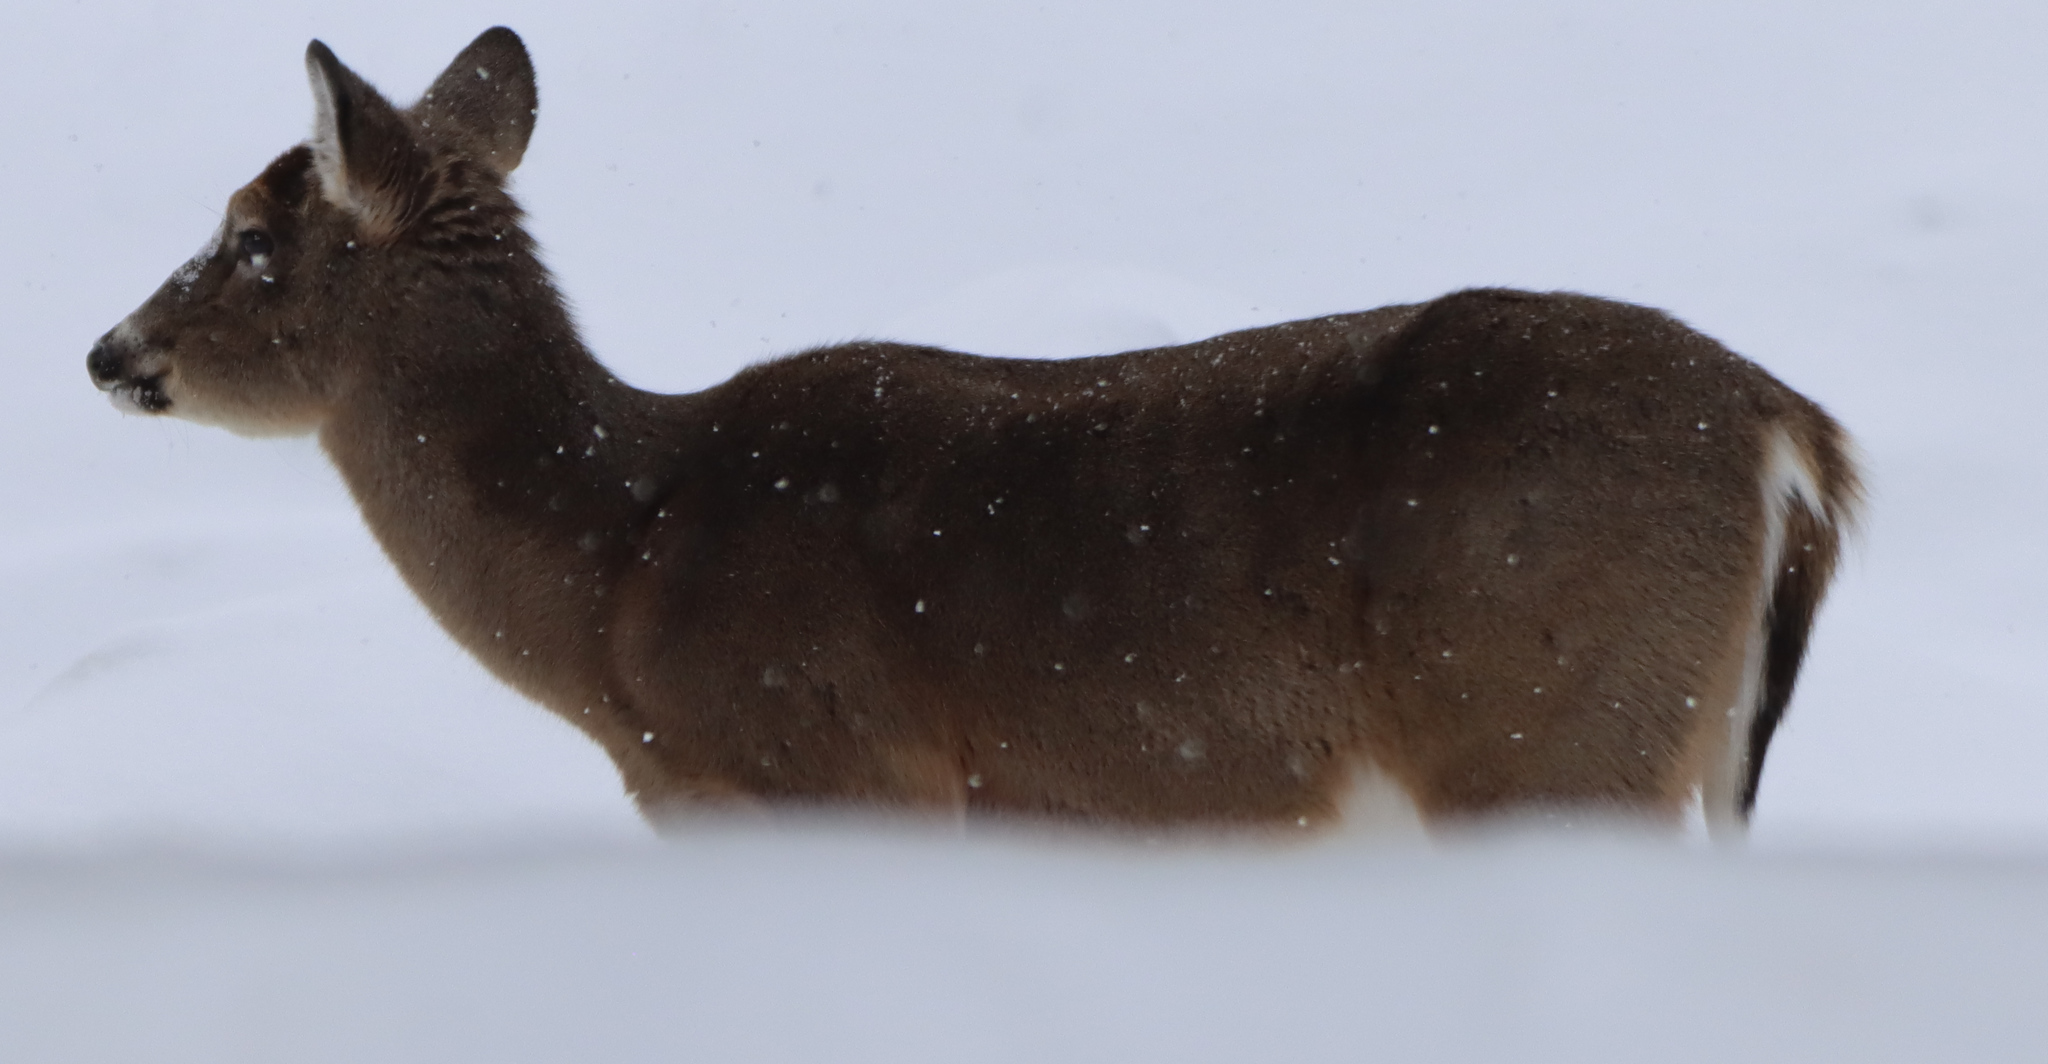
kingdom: Animalia
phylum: Chordata
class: Mammalia
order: Artiodactyla
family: Cervidae
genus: Odocoileus
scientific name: Odocoileus virginianus
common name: White-tailed deer
